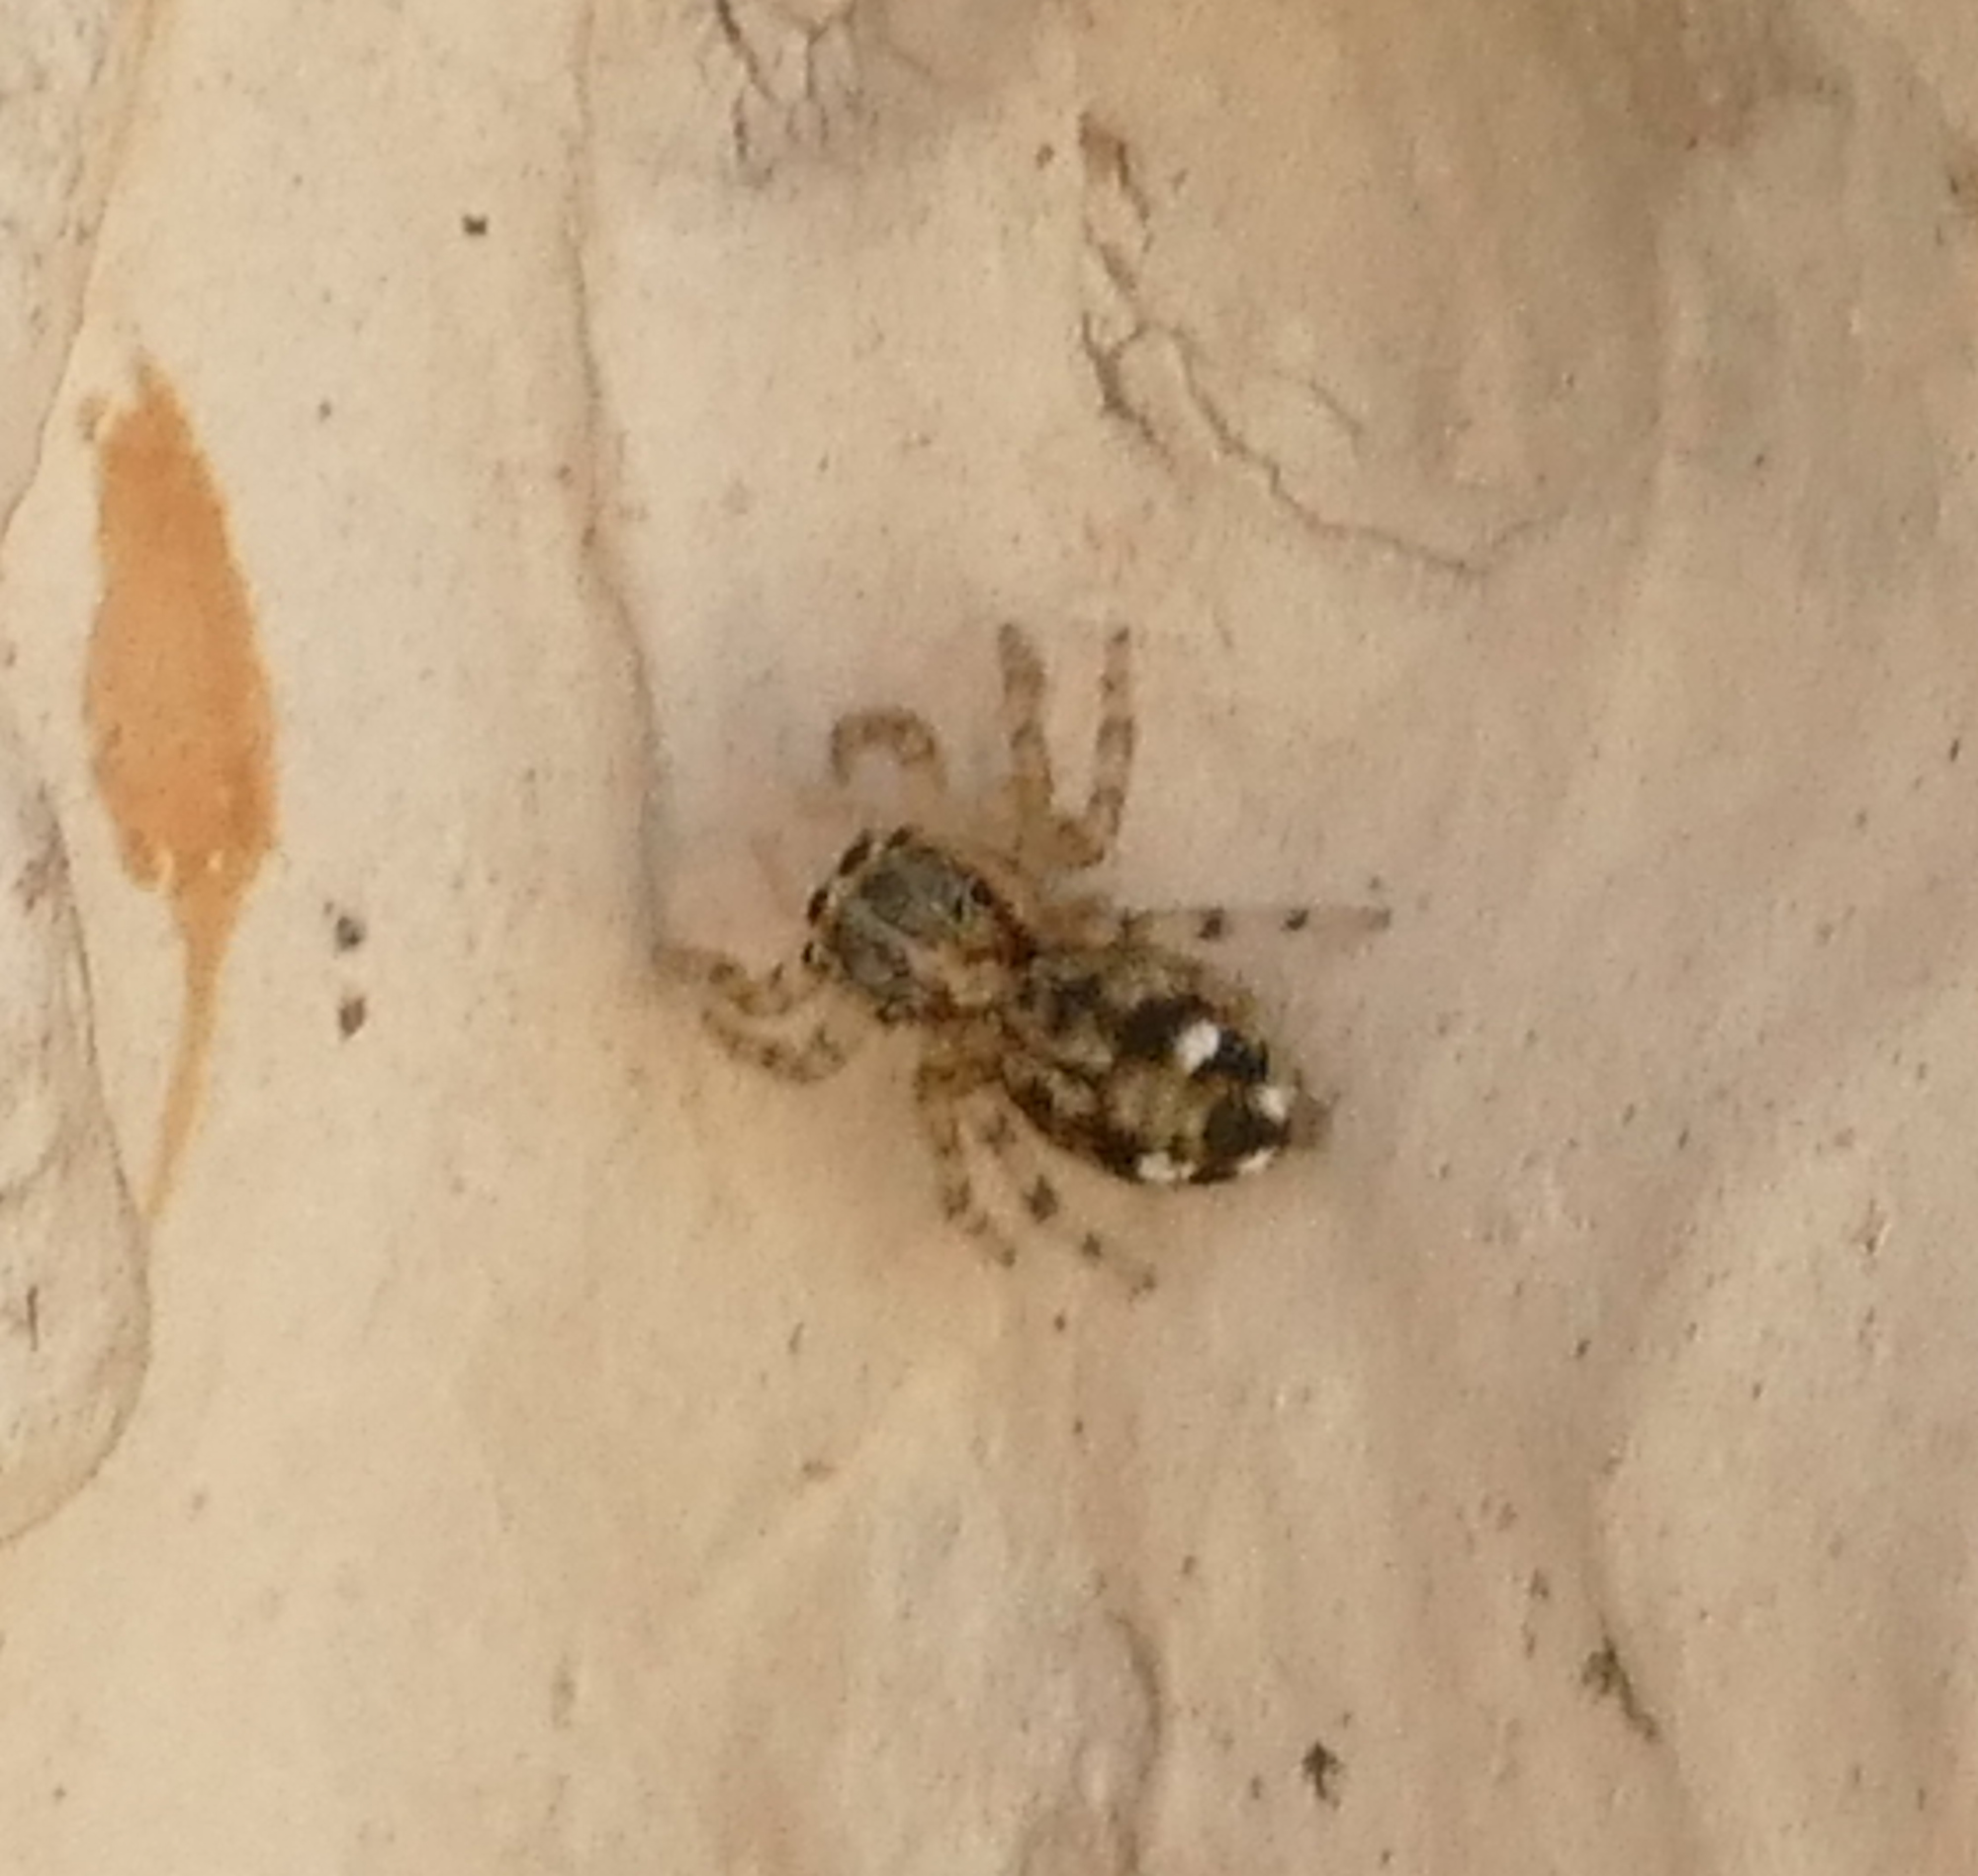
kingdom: Animalia
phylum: Arthropoda
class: Arachnida
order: Araneae
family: Salticidae
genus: Plexippus
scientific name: Plexippus paykulli
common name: Pantropical jumper
